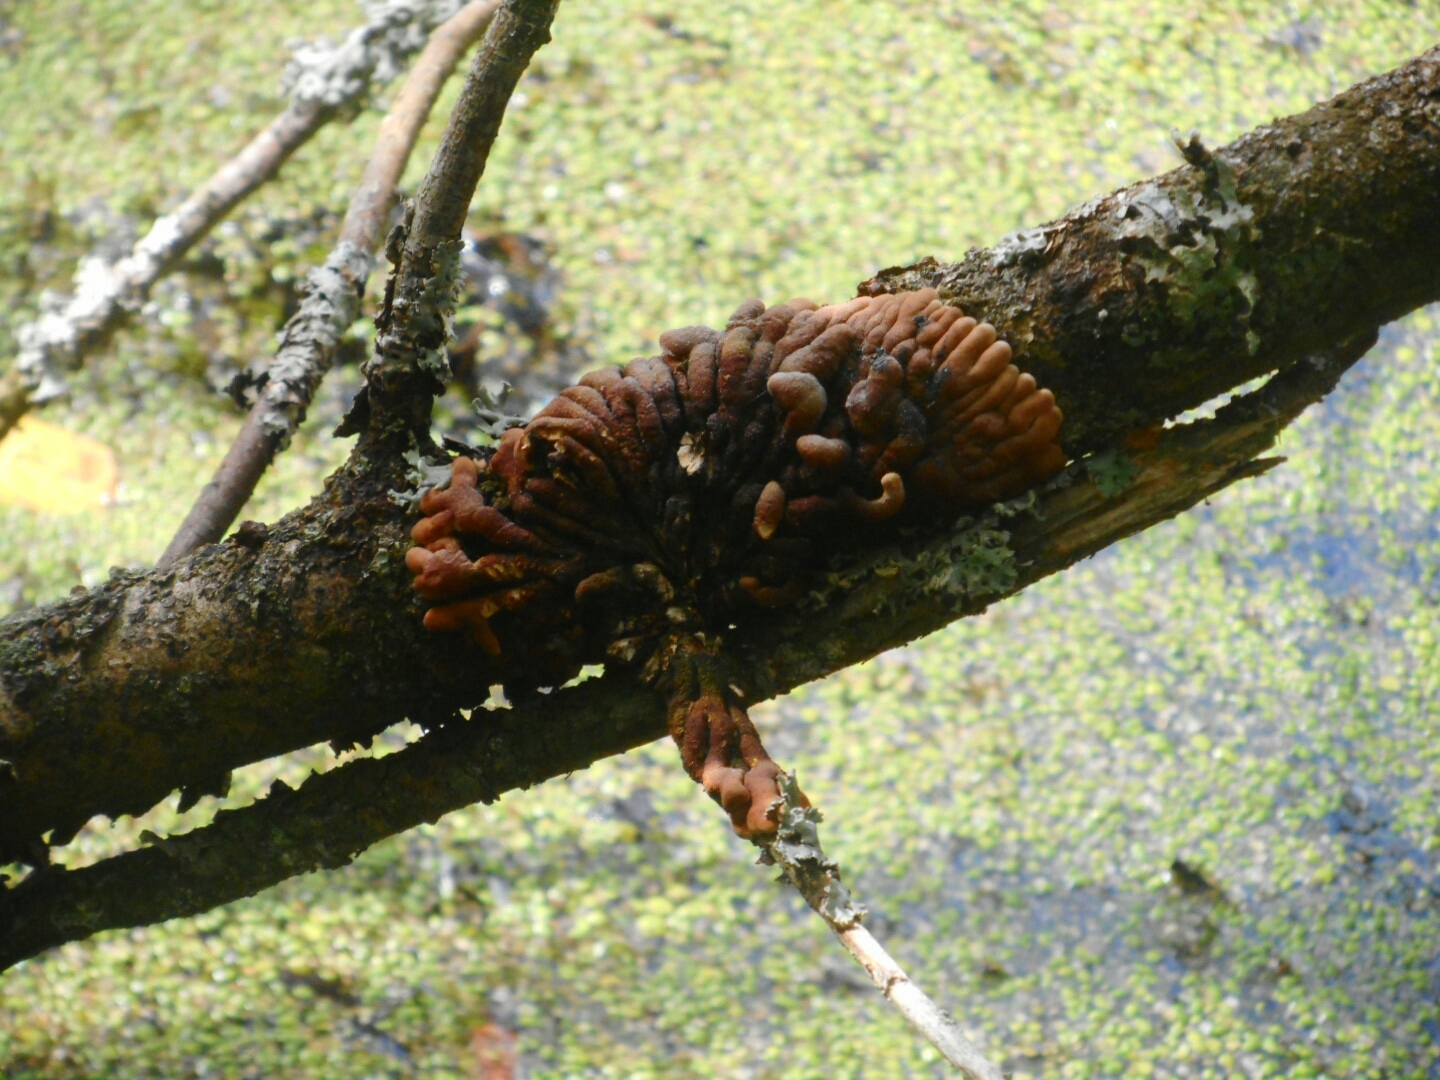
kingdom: Fungi
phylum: Ascomycota
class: Sordariomycetes
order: Hypocreales
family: Hypocreaceae
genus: Hypocreopsis
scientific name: Hypocreopsis lichenoides
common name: Willow gloves
